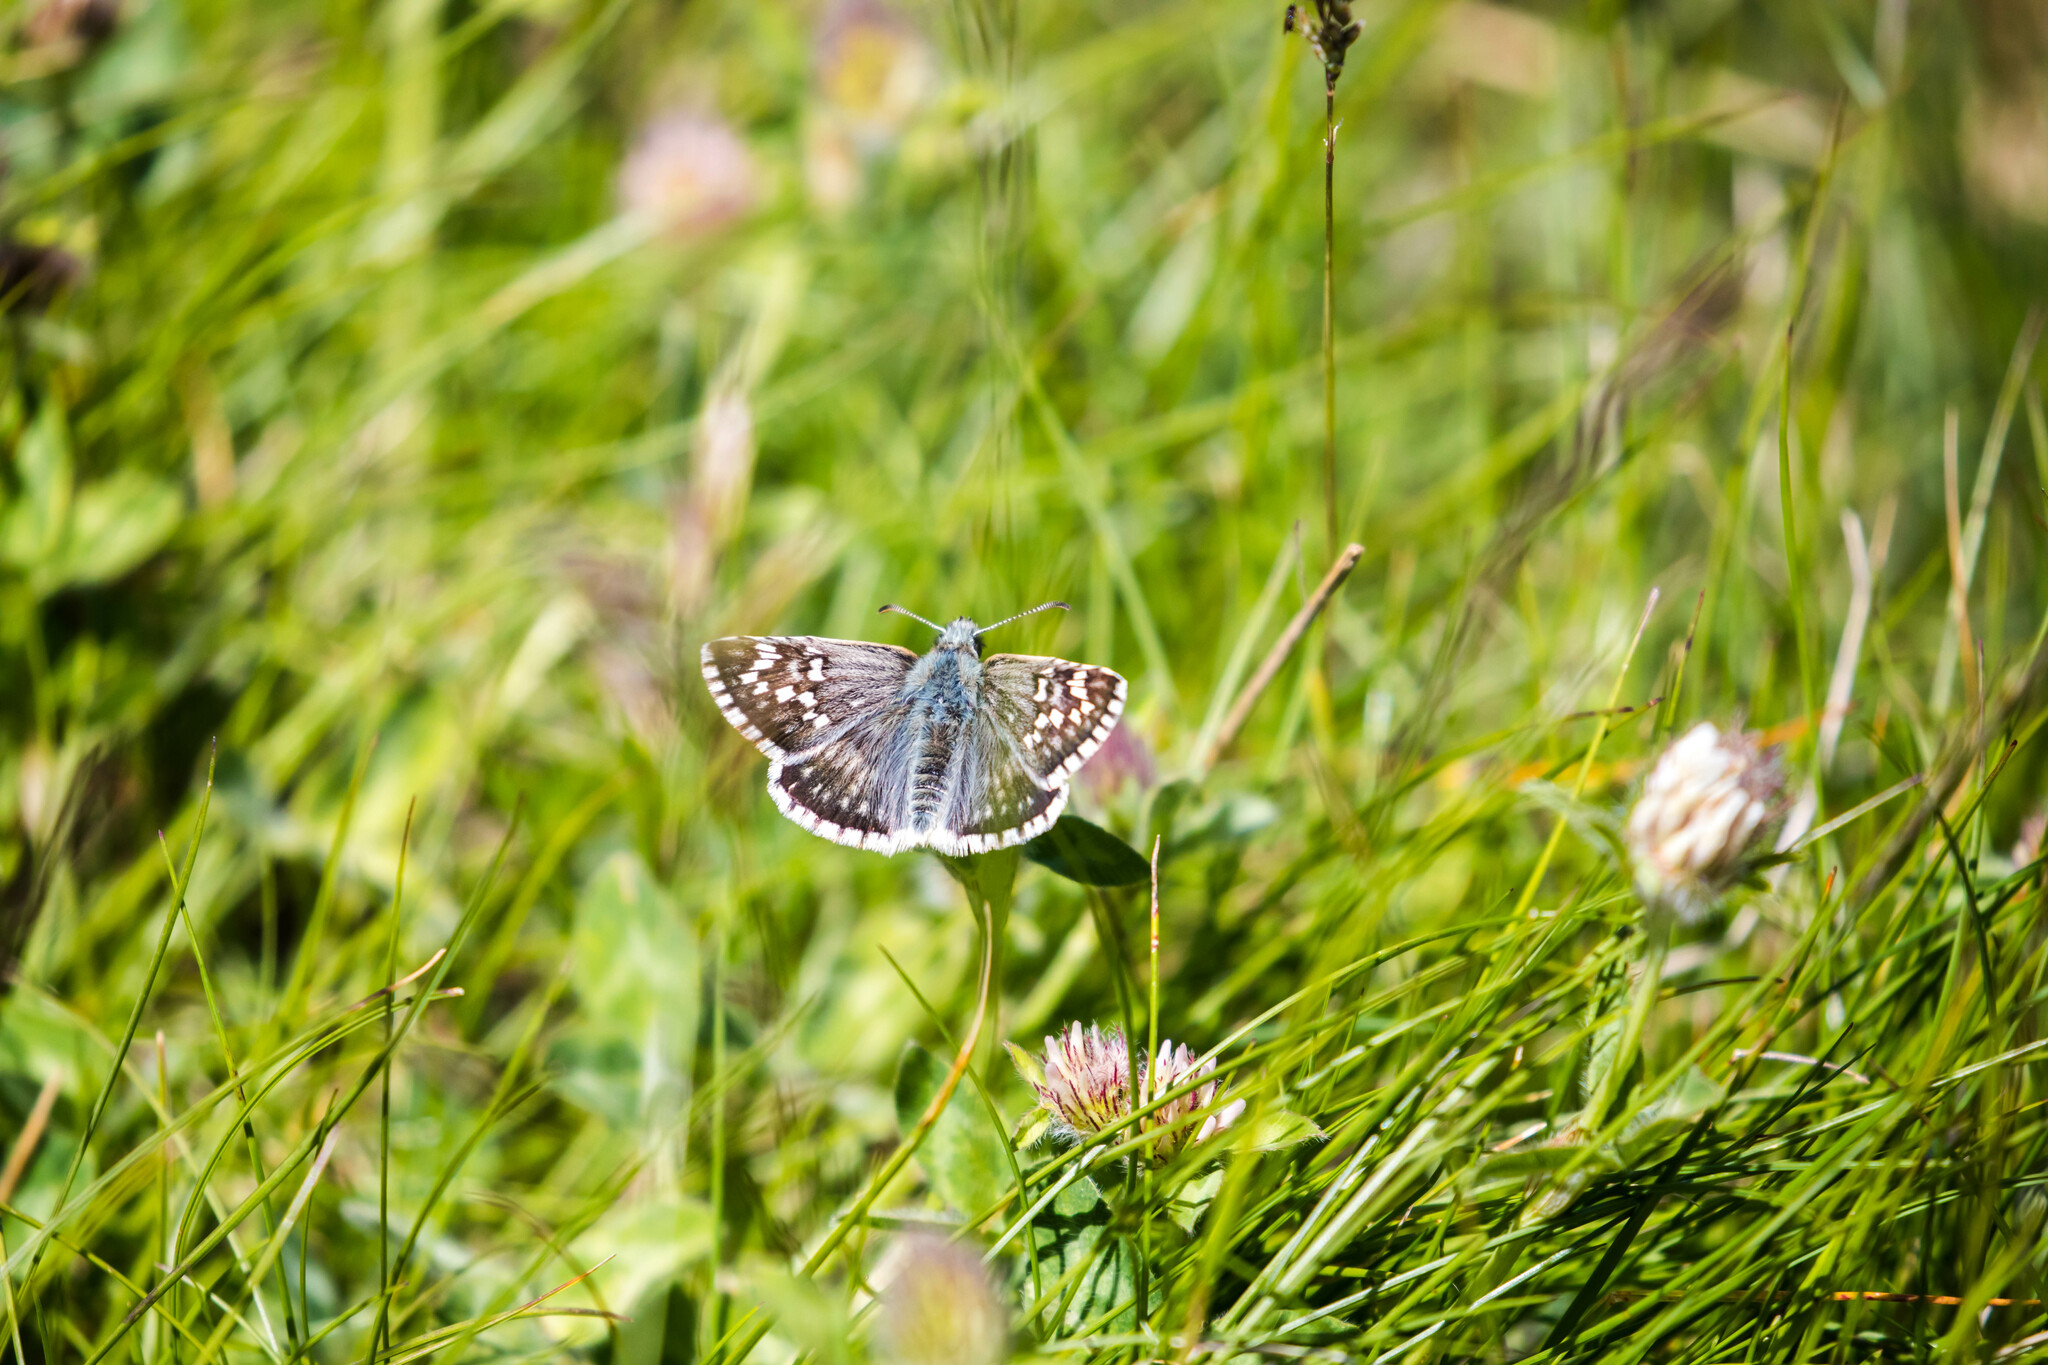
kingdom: Animalia
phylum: Arthropoda
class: Insecta
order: Lepidoptera
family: Hesperiidae
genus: Pyrgus
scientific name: Pyrgus fritillarius
